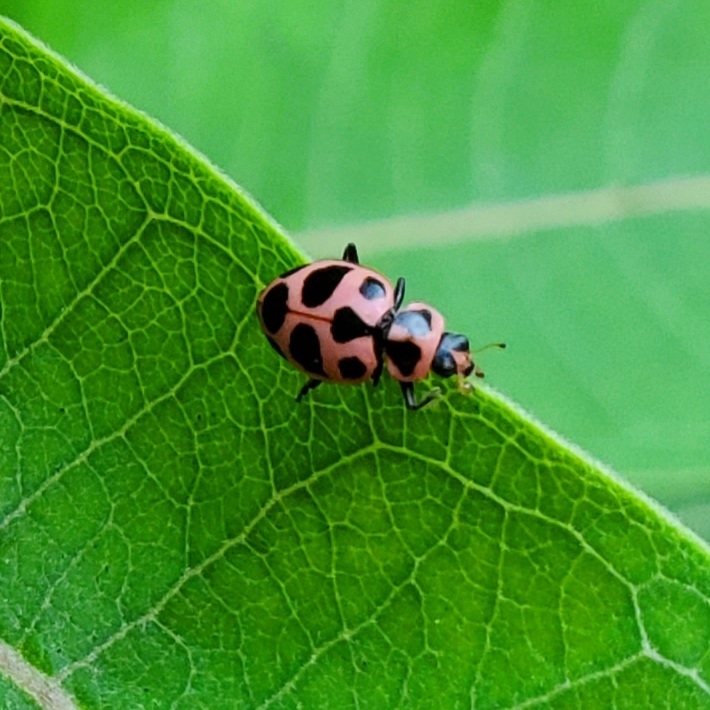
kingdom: Animalia
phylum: Arthropoda
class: Insecta
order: Coleoptera
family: Coccinellidae
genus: Coleomegilla
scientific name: Coleomegilla maculata
